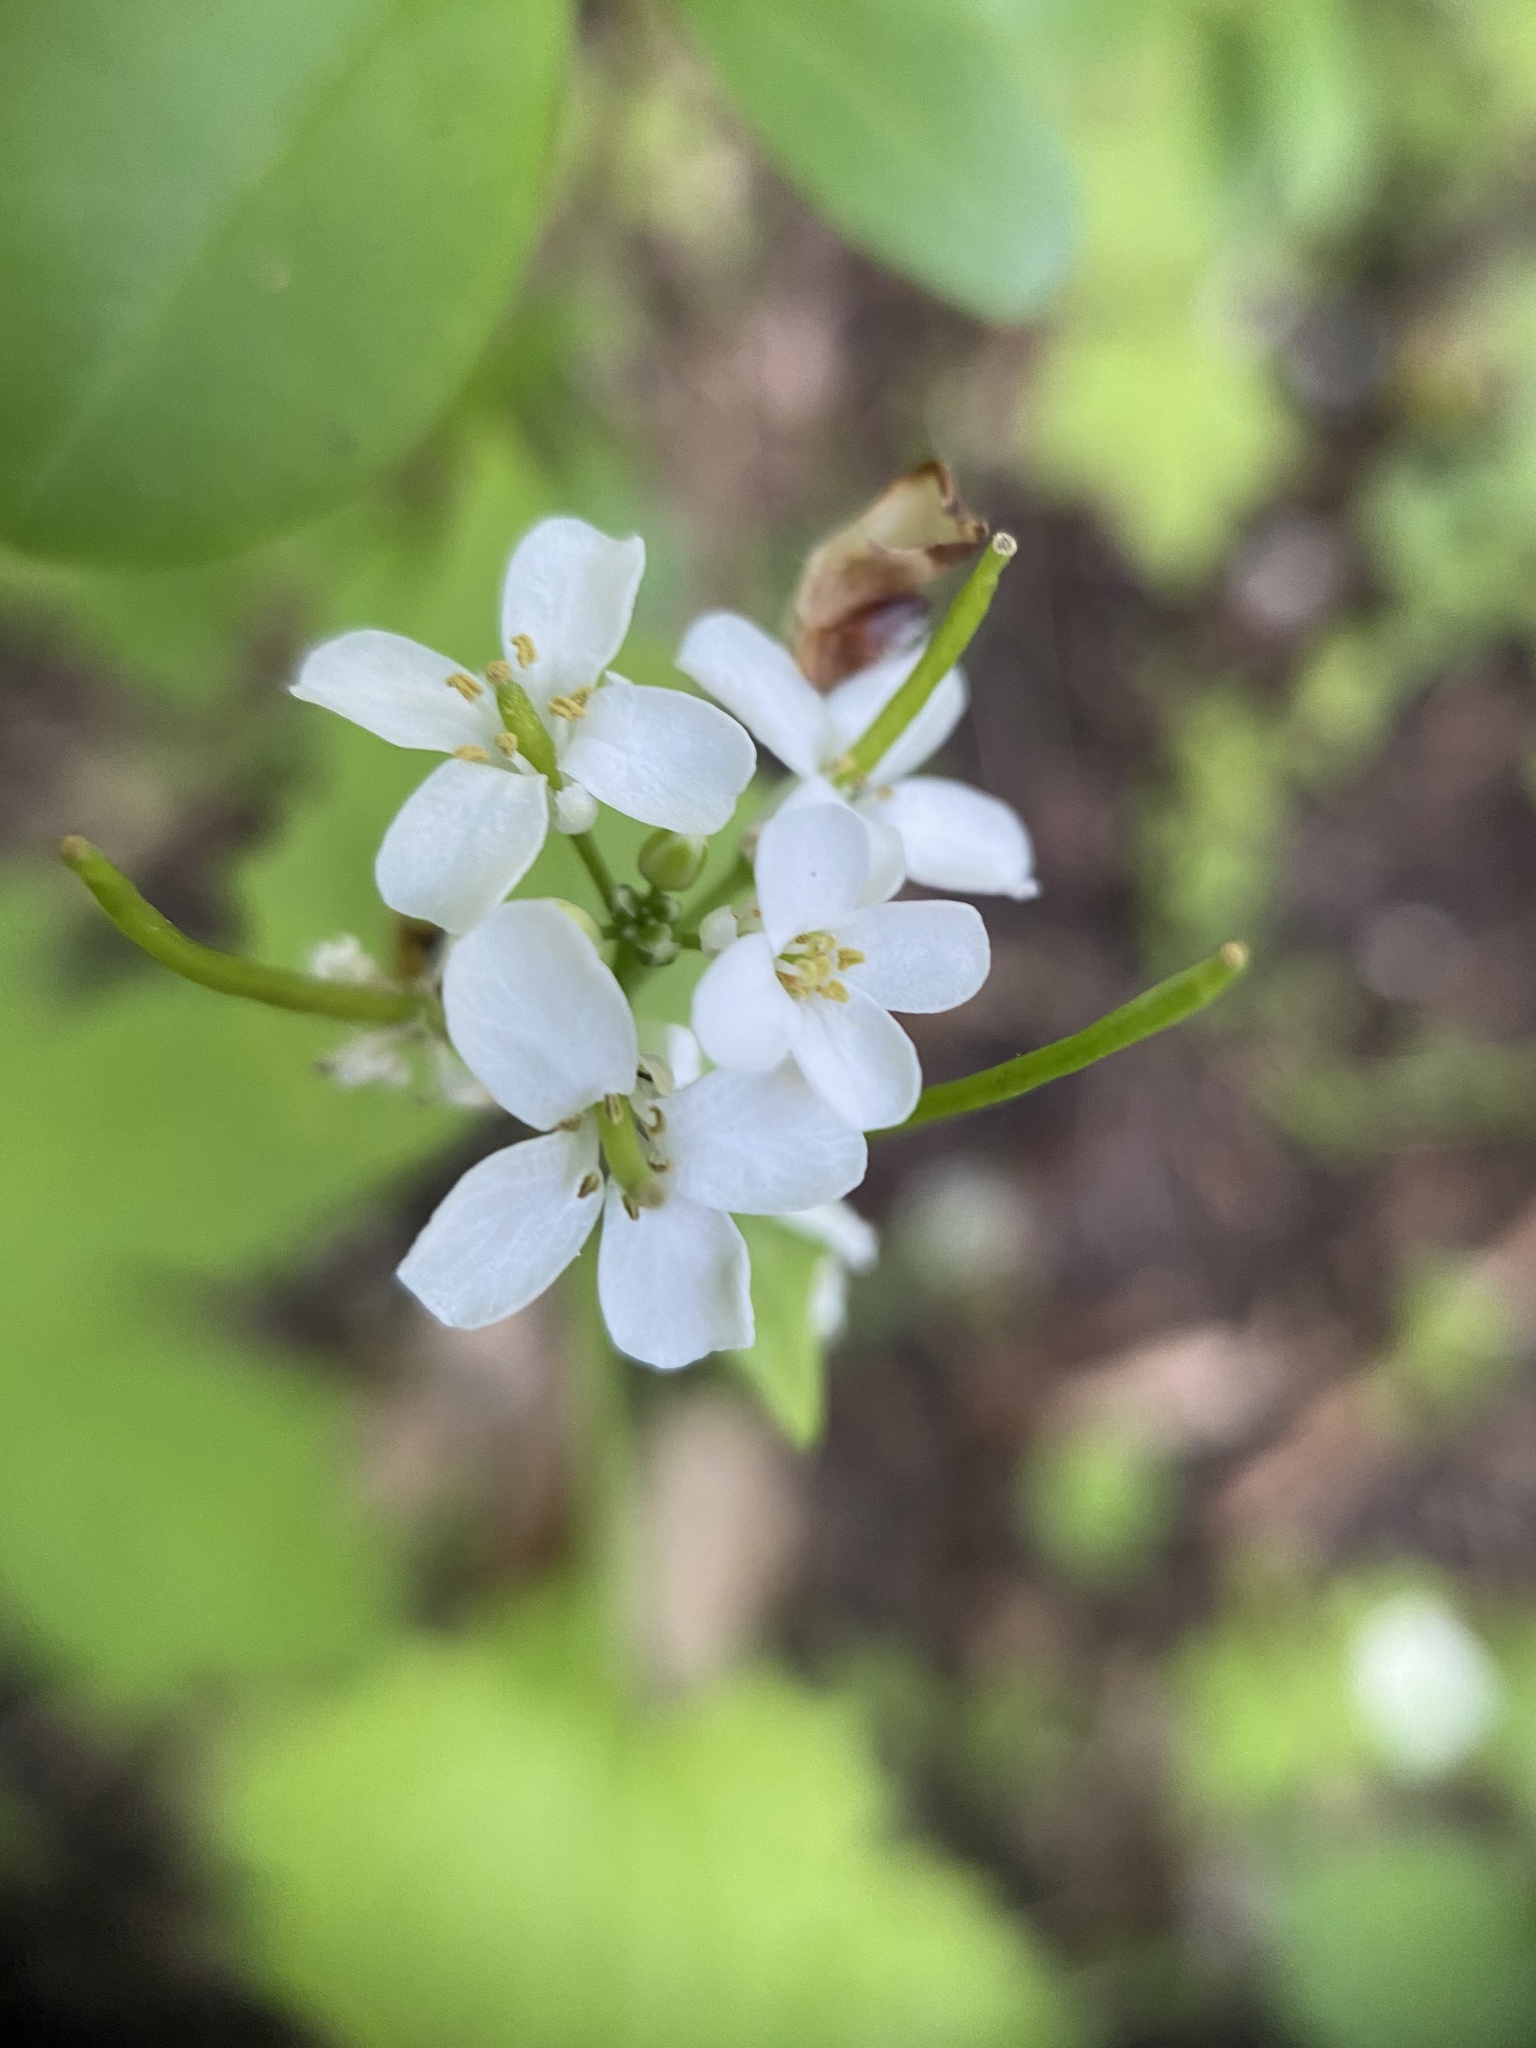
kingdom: Plantae
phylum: Tracheophyta
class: Magnoliopsida
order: Brassicales
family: Brassicaceae
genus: Alliaria
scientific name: Alliaria petiolata
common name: Garlic mustard
